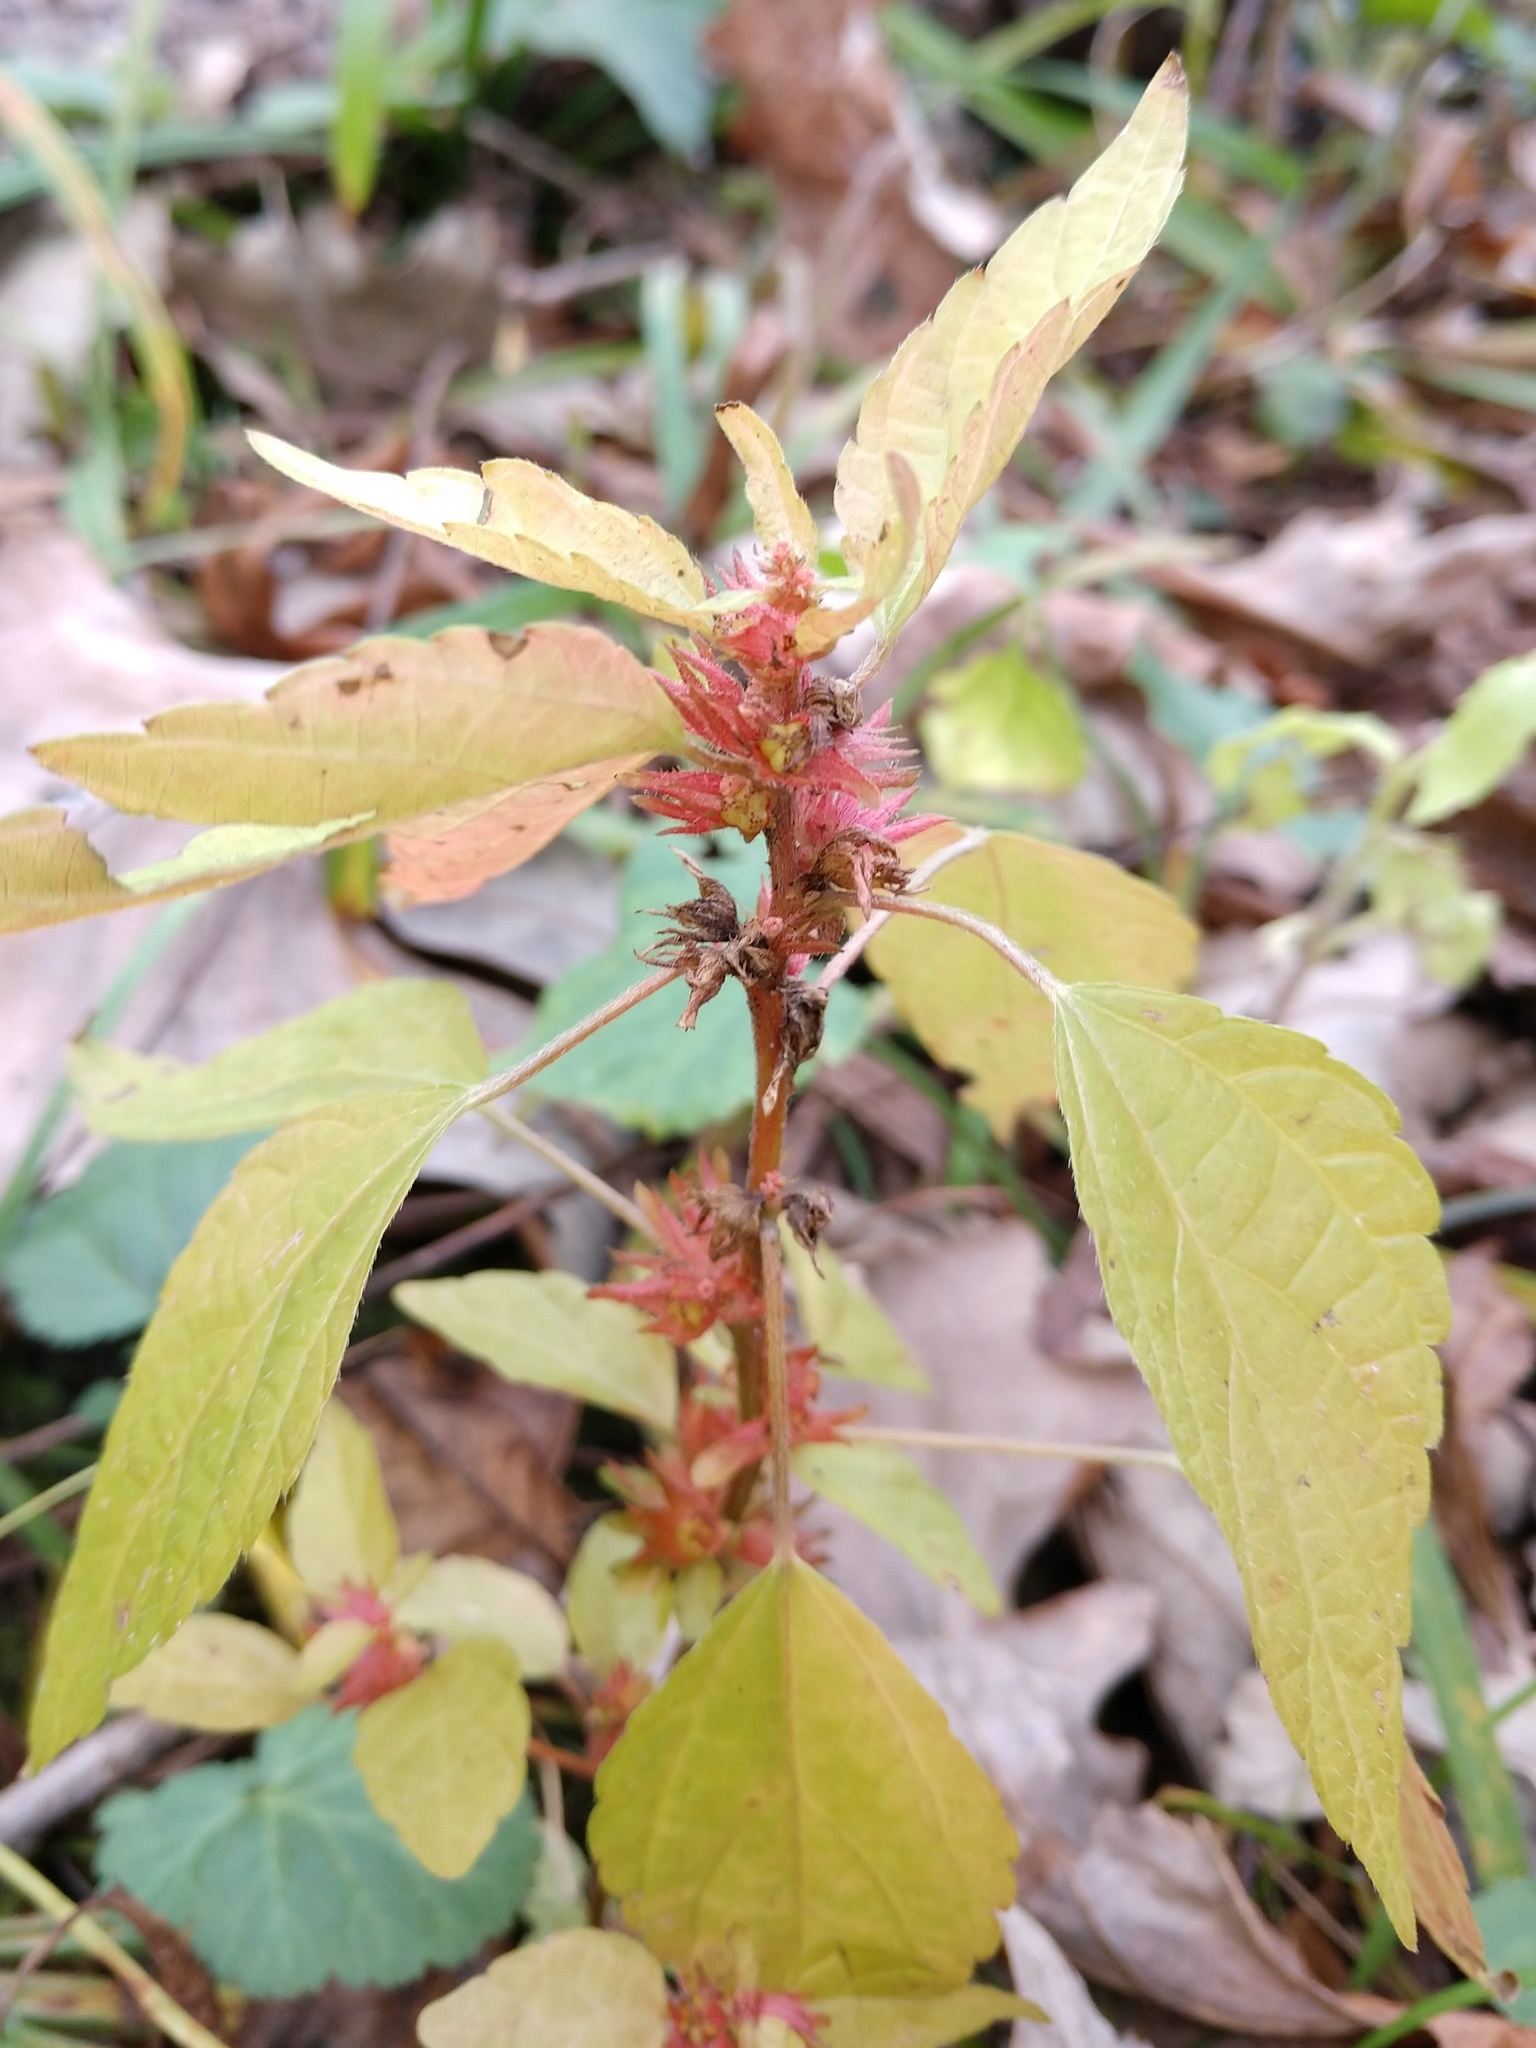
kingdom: Plantae
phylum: Tracheophyta
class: Magnoliopsida
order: Malpighiales
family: Euphorbiaceae
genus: Acalypha
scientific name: Acalypha rhomboidea
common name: Rhombic copperleaf
